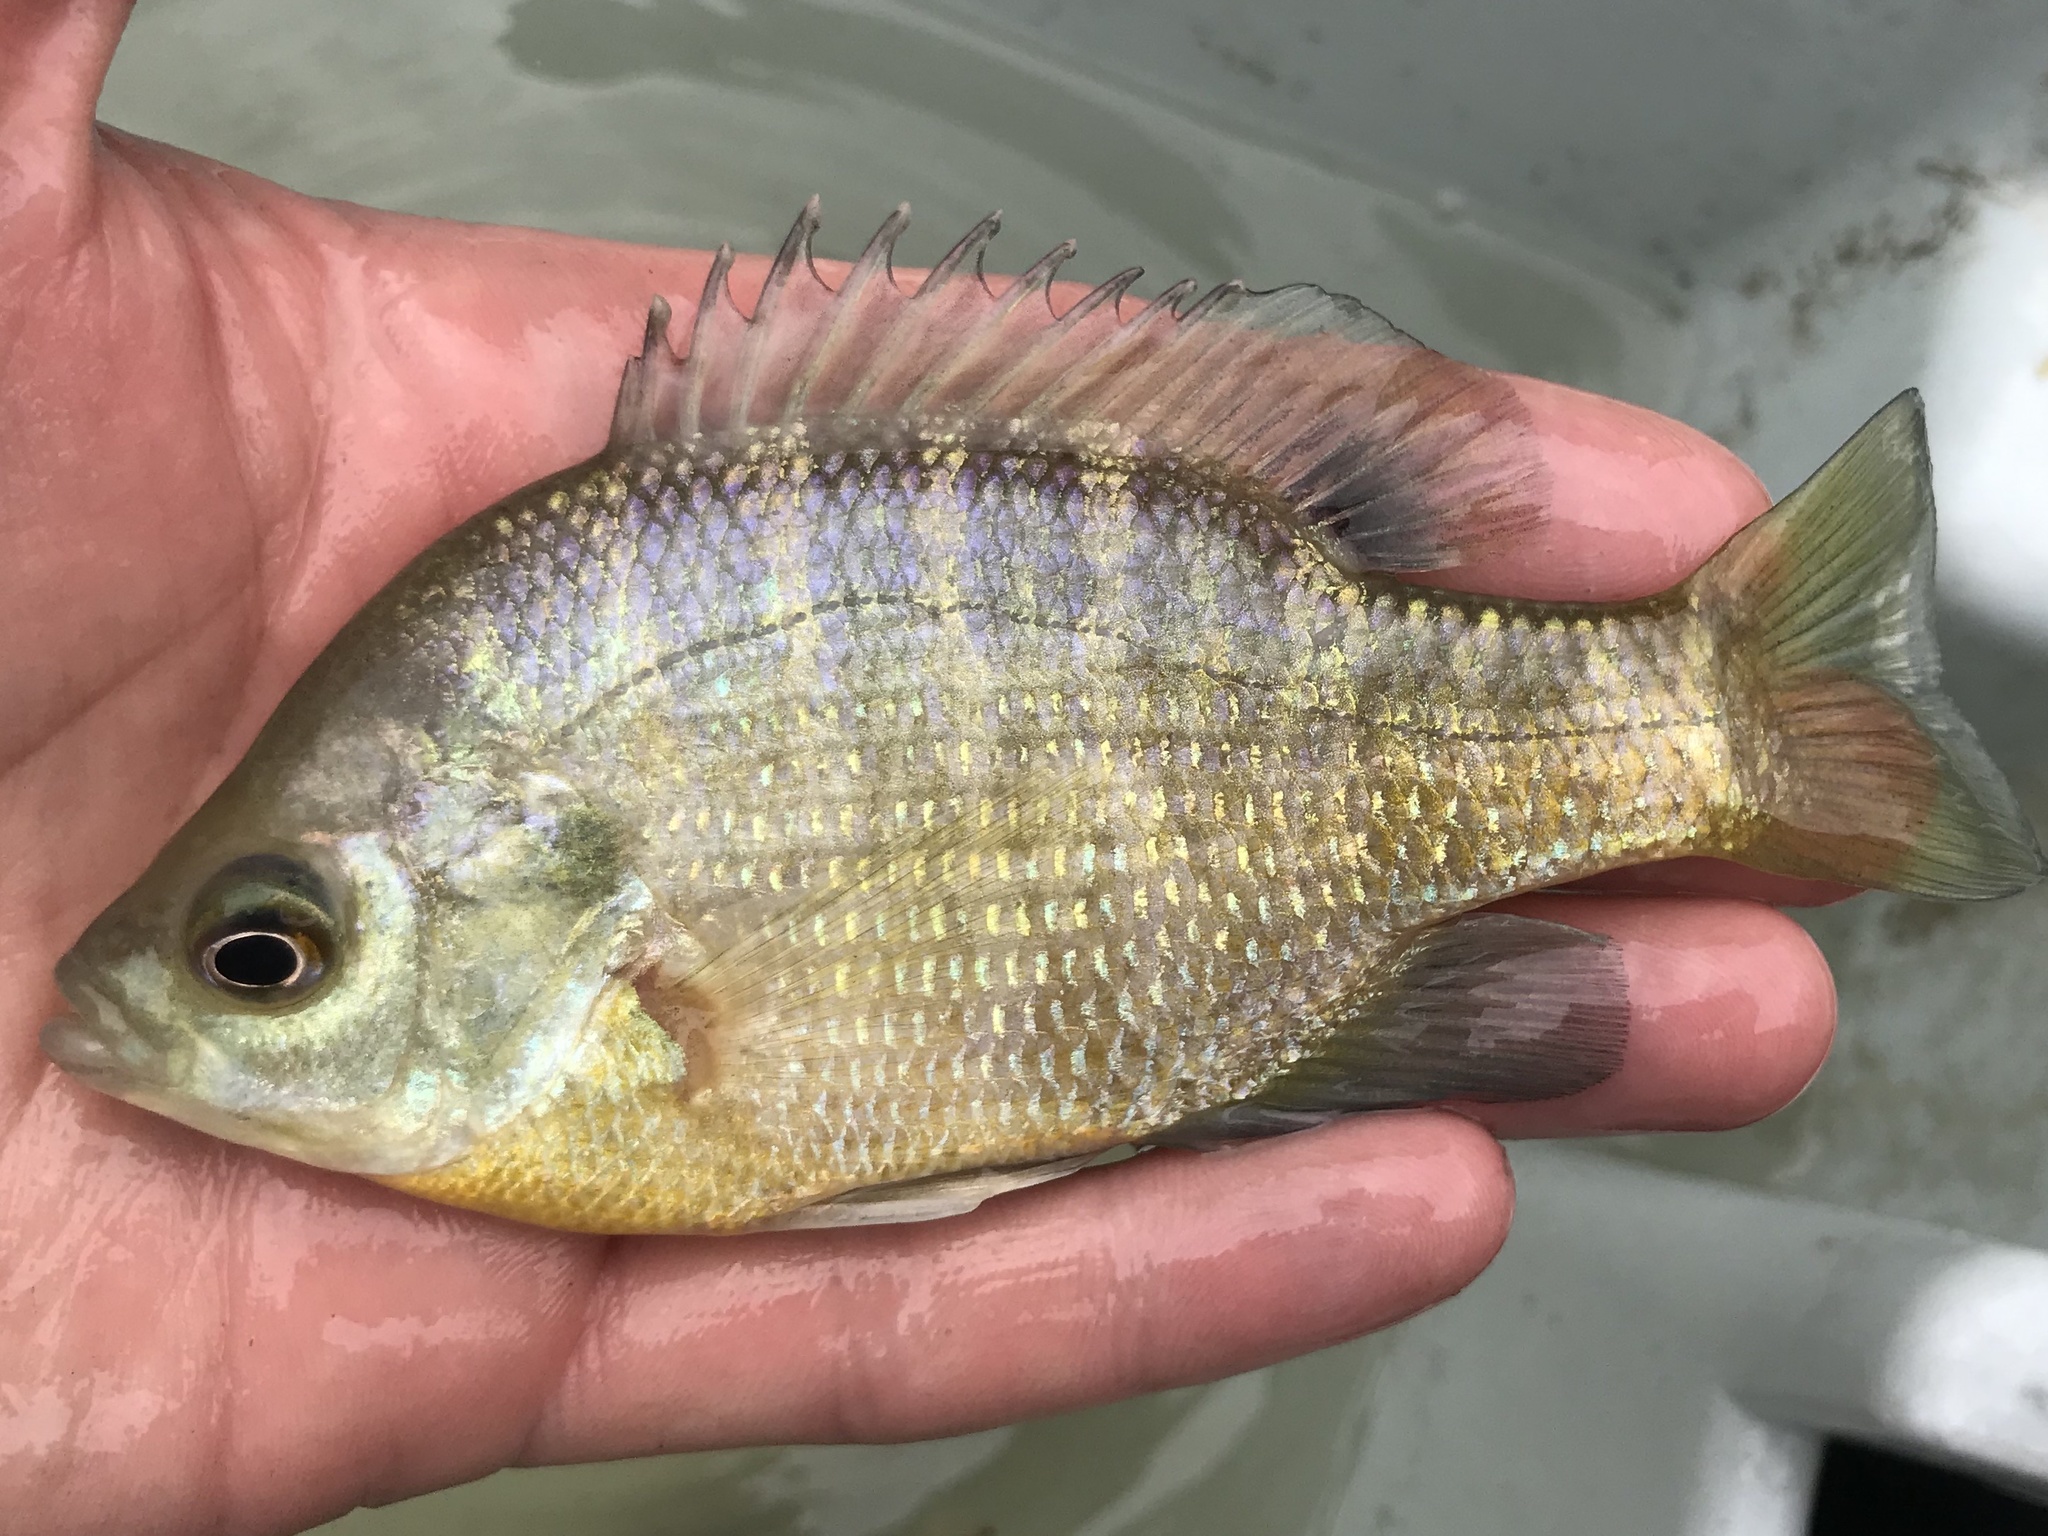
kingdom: Animalia
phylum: Chordata
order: Perciformes
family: Centrarchidae
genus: Lepomis
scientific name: Lepomis macrochirus
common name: Bluegill
